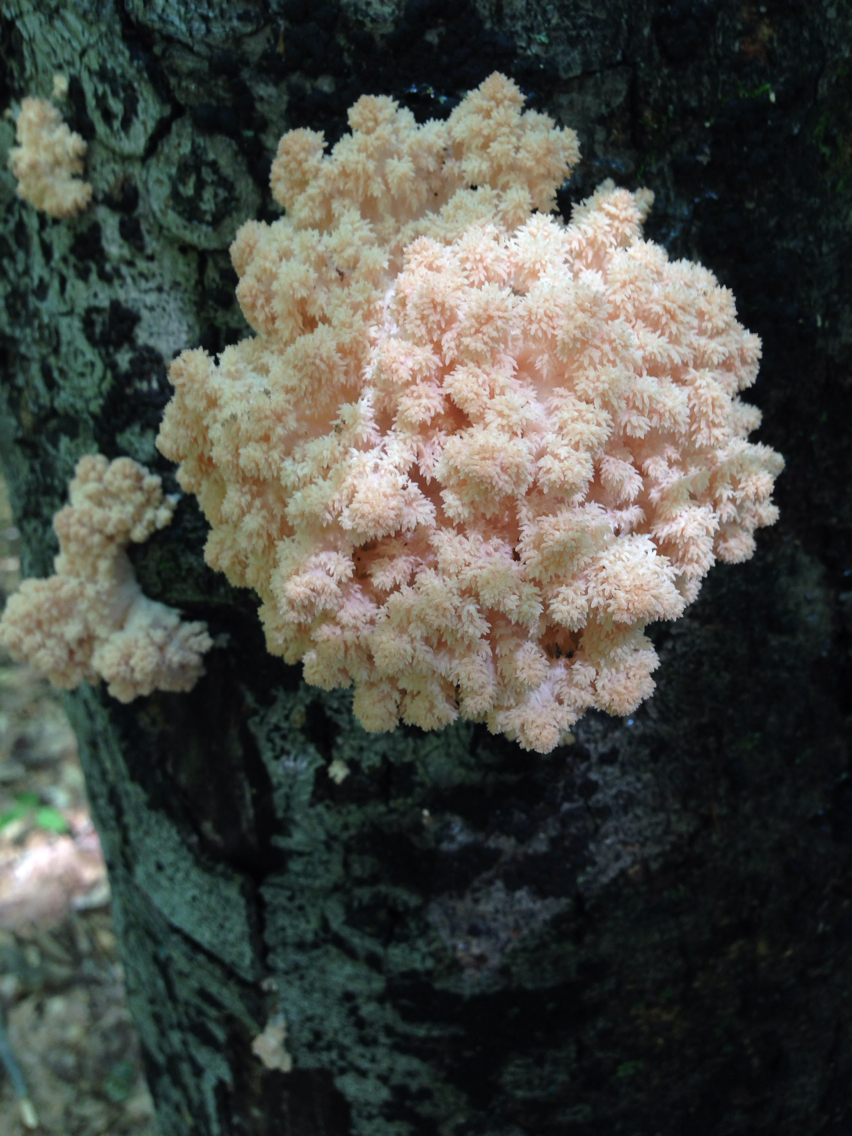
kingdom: Fungi
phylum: Basidiomycota
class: Agaricomycetes
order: Russulales
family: Hericiaceae
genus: Hericium
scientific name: Hericium coralloides
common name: Coral tooth
